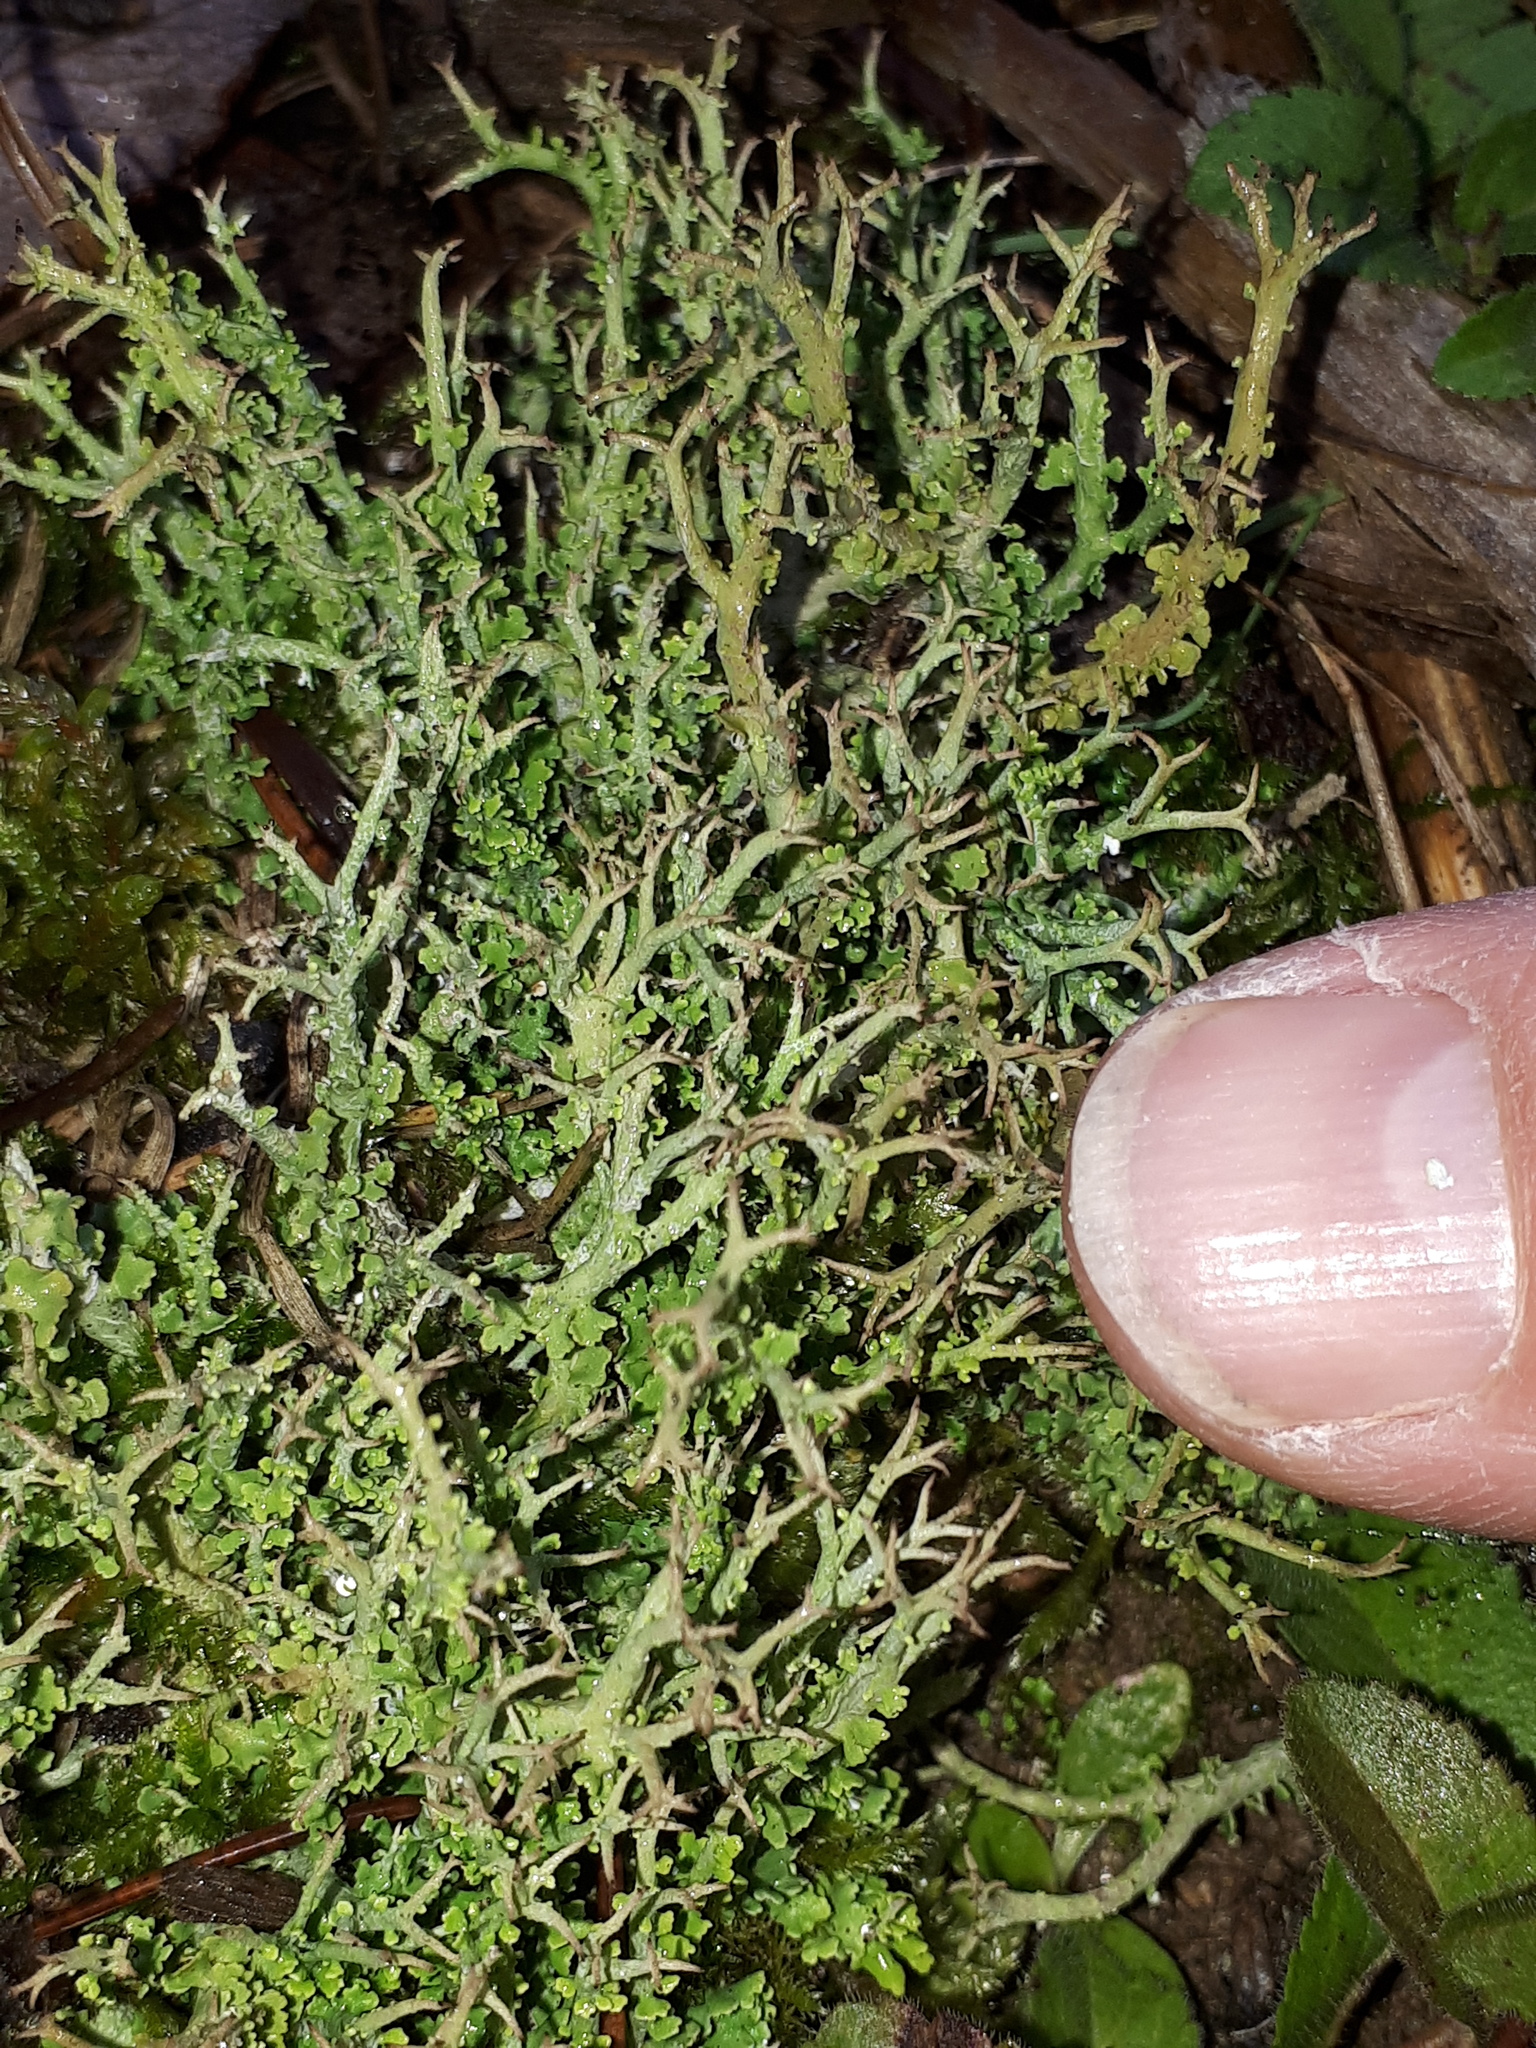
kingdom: Fungi
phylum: Ascomycota
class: Lecanoromycetes
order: Lecanorales
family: Cladoniaceae
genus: Cladonia
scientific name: Cladonia furcata
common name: Many-forked cladonia
